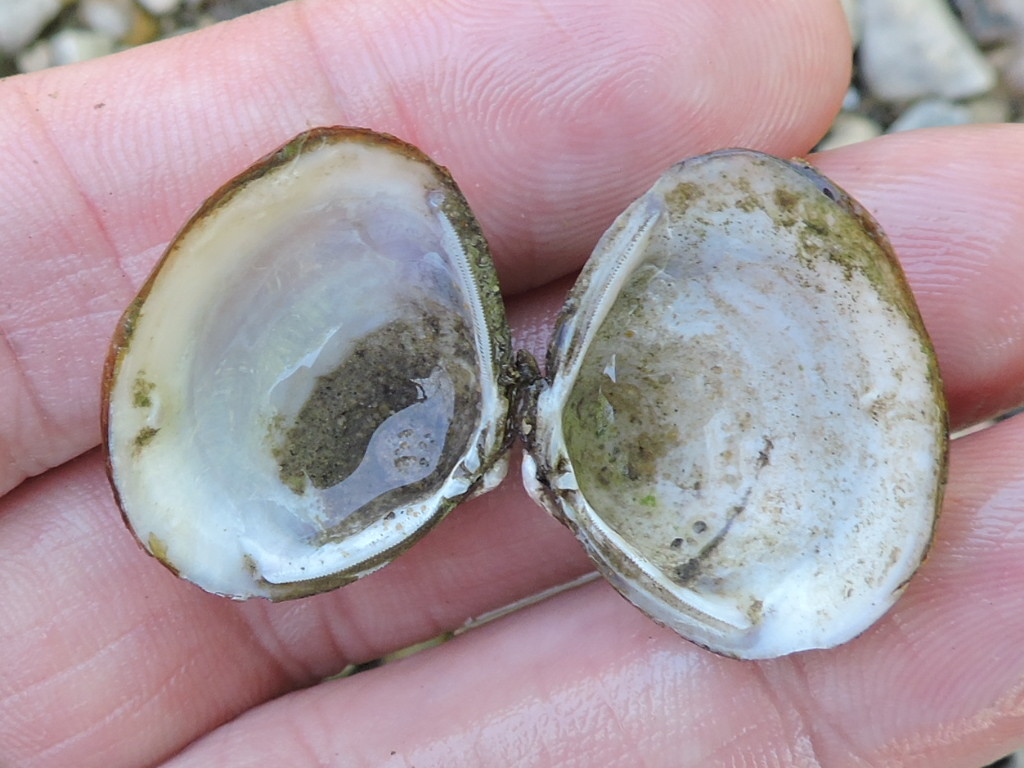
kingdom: Animalia
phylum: Mollusca
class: Bivalvia
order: Venerida
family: Cyrenidae
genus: Corbicula
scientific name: Corbicula fluminea
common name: Asian clam
